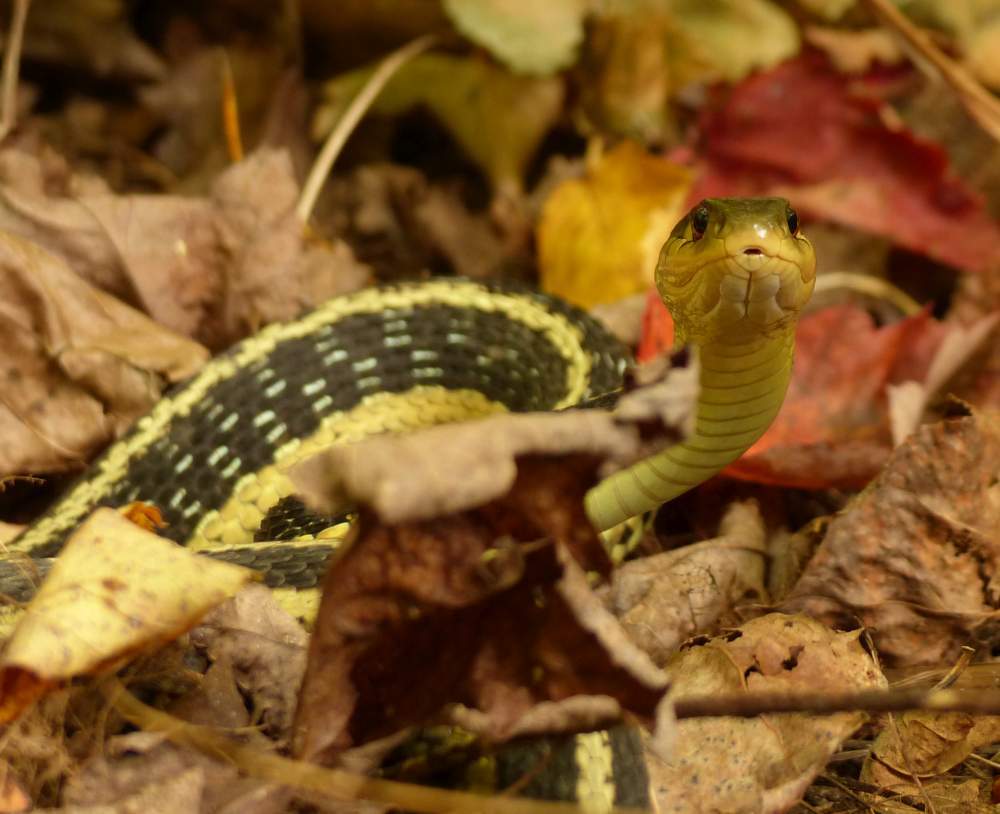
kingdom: Animalia
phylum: Chordata
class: Squamata
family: Colubridae
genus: Thamnophis
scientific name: Thamnophis sirtalis
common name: Common garter snake
